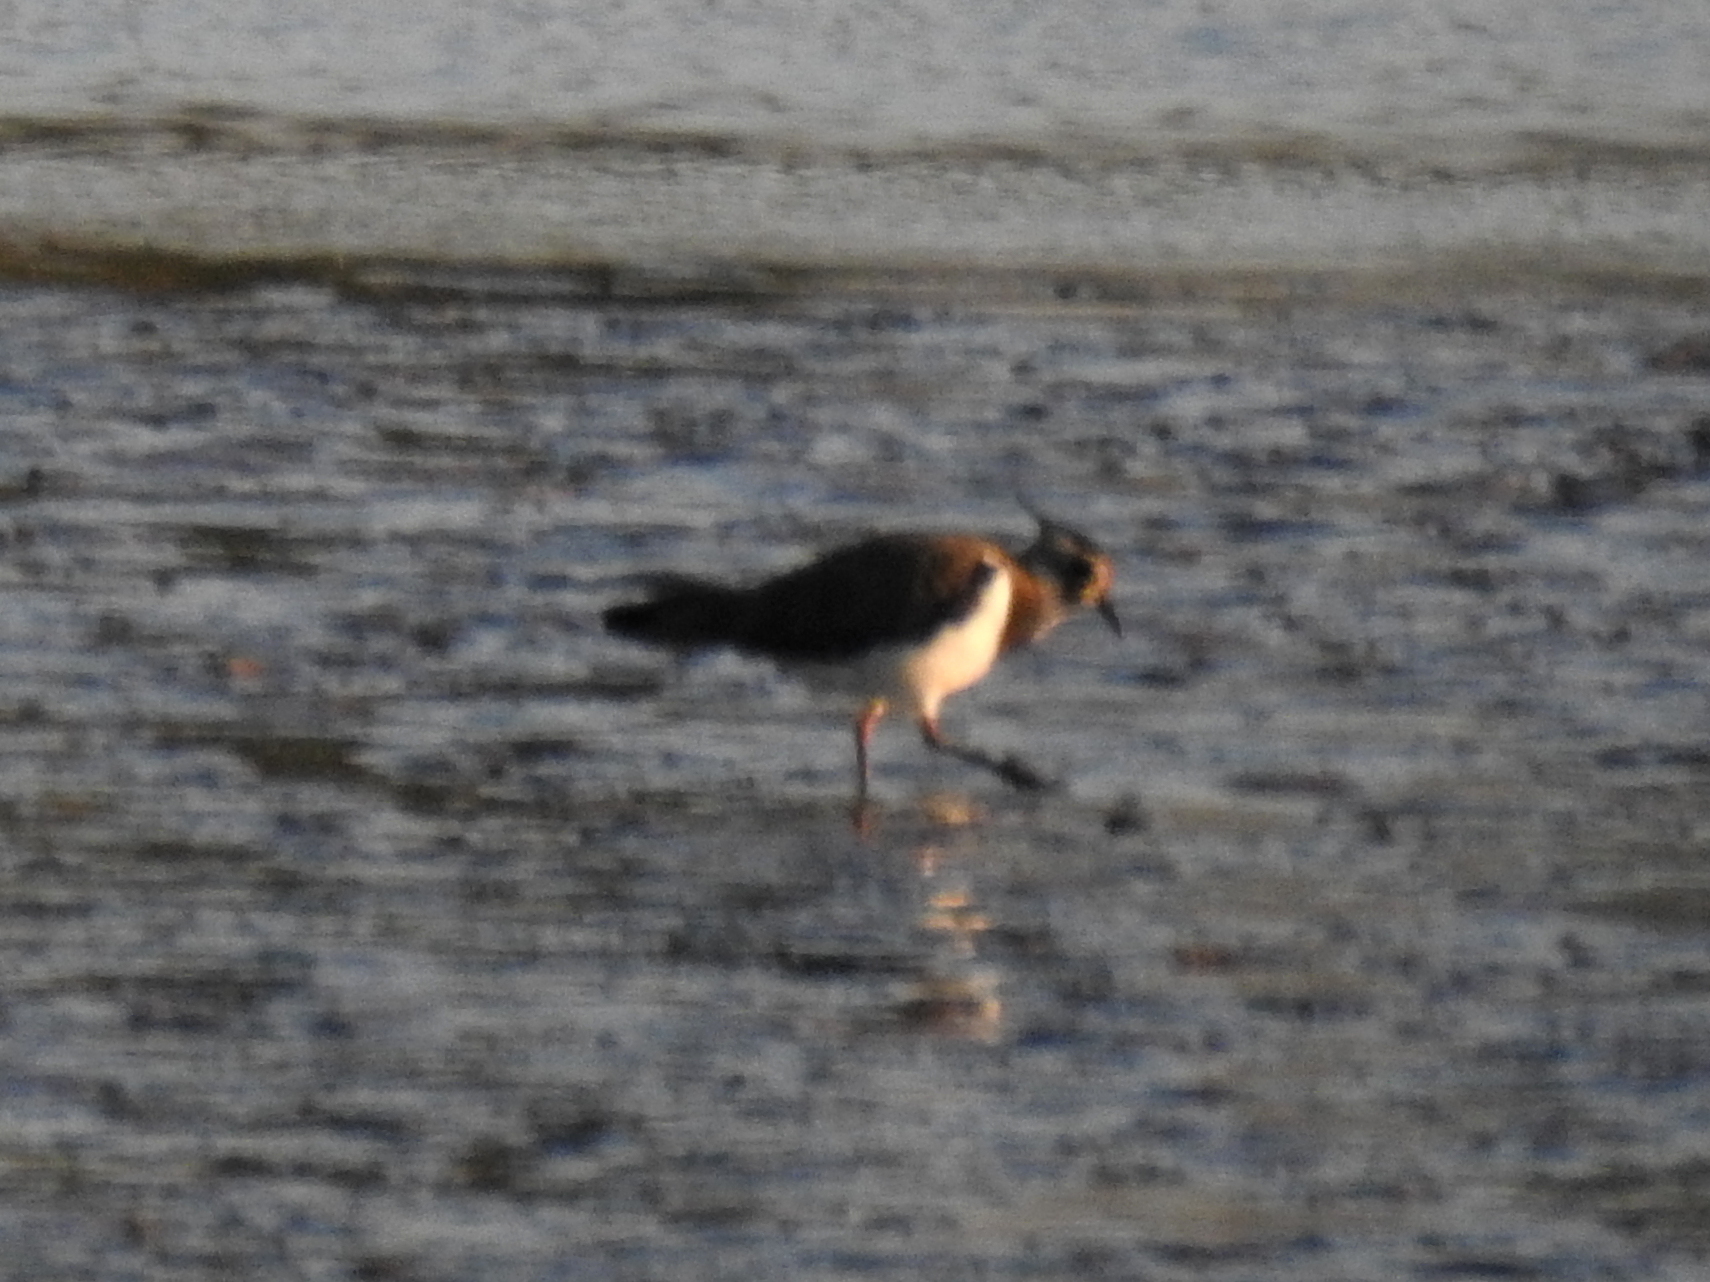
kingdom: Animalia
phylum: Chordata
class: Aves
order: Charadriiformes
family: Charadriidae
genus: Vanellus
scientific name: Vanellus vanellus
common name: Northern lapwing
